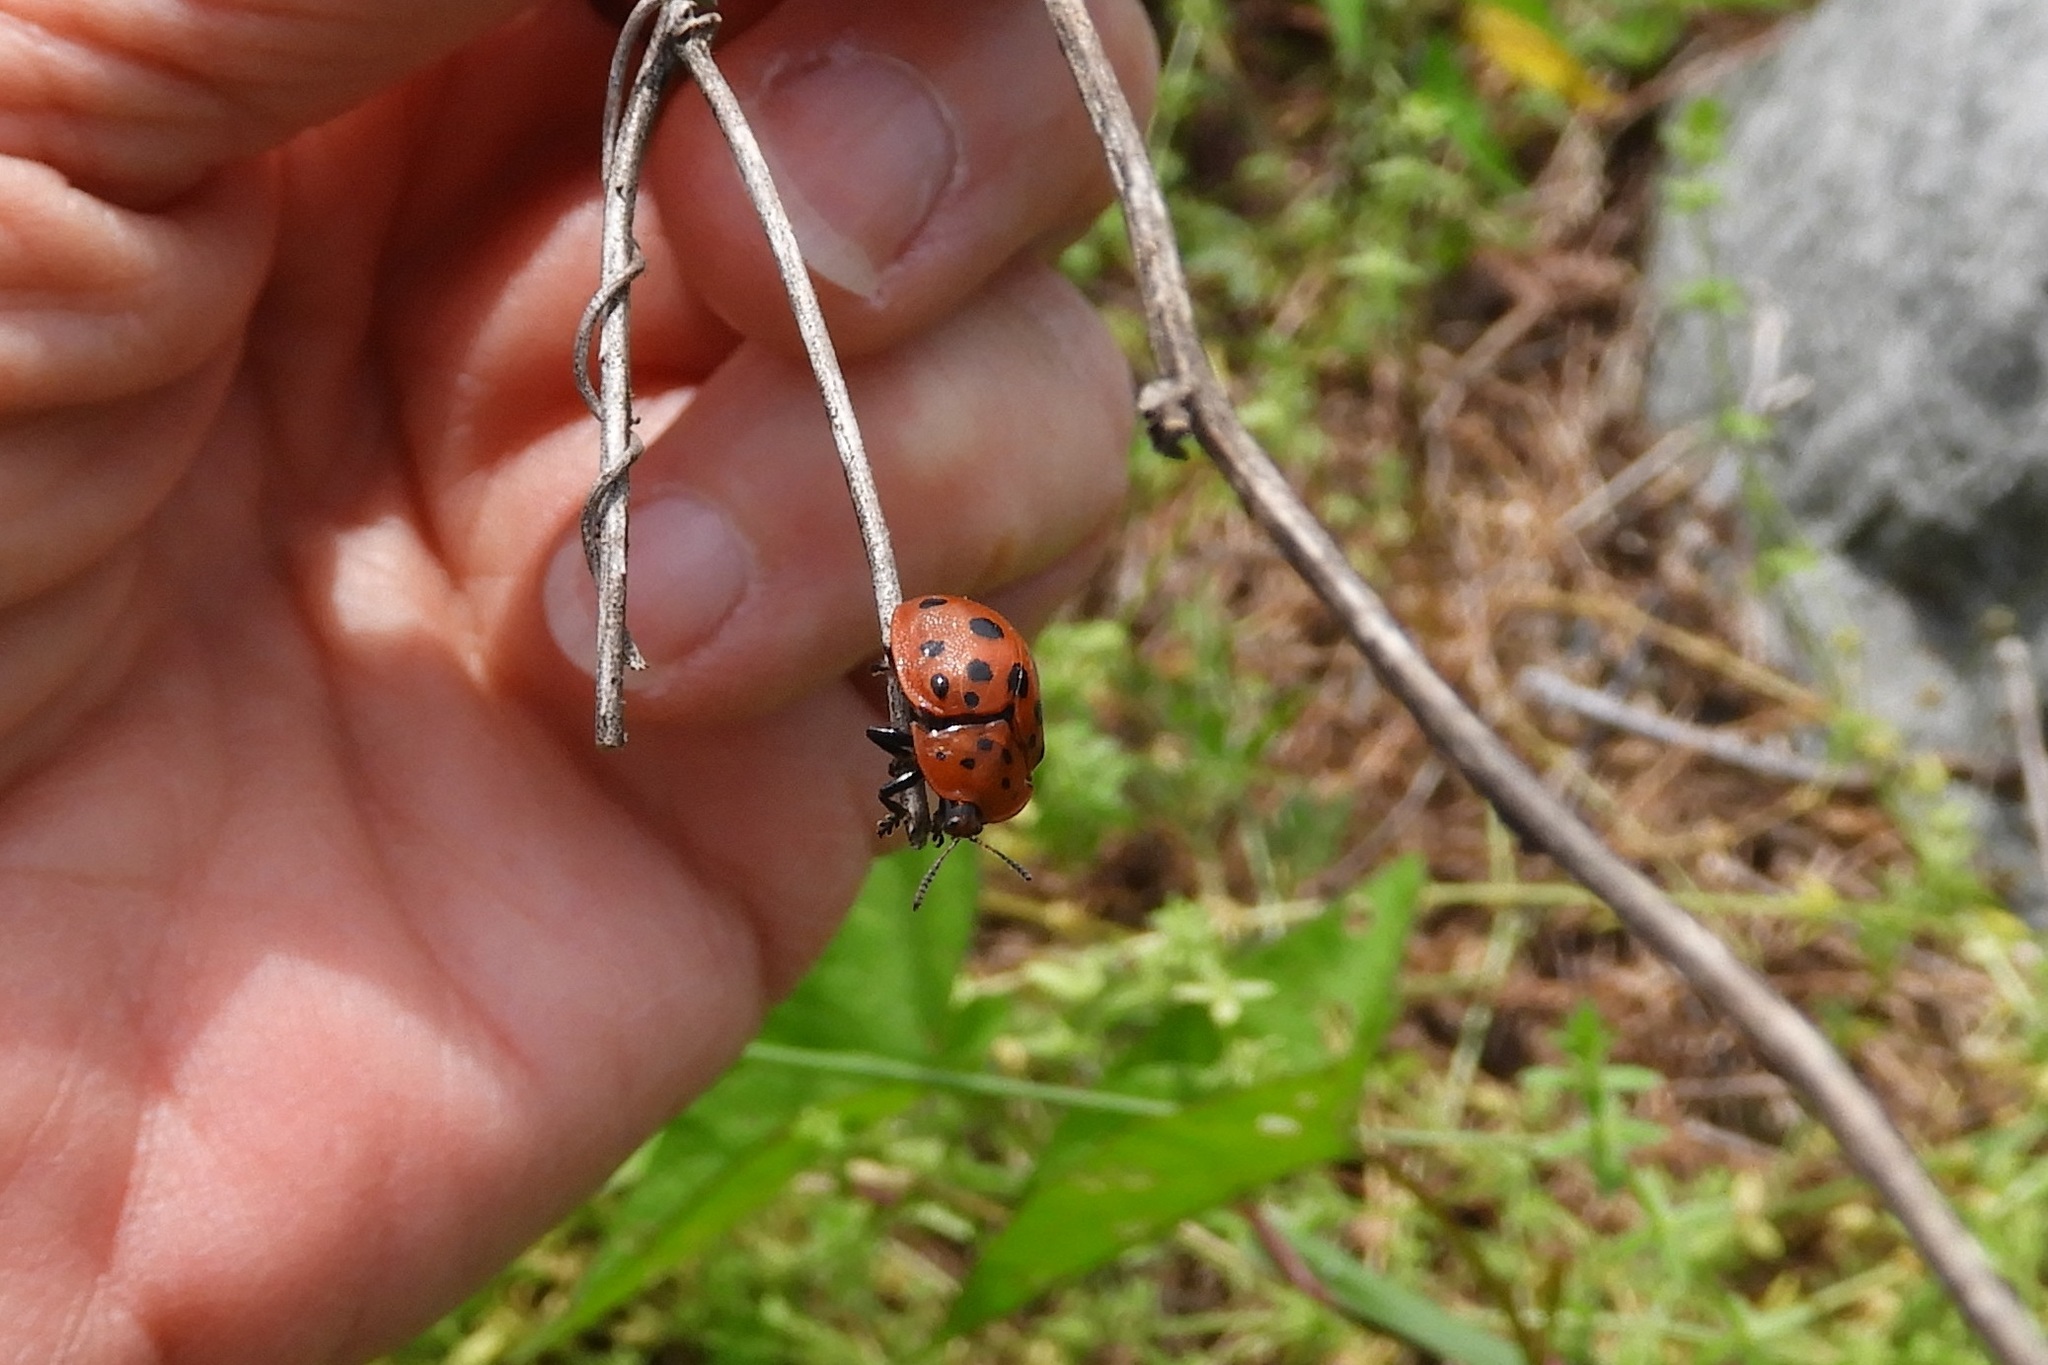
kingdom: Animalia
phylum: Arthropoda
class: Insecta
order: Coleoptera
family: Chrysomelidae
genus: Chelymorpha
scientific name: Chelymorpha cassidea
